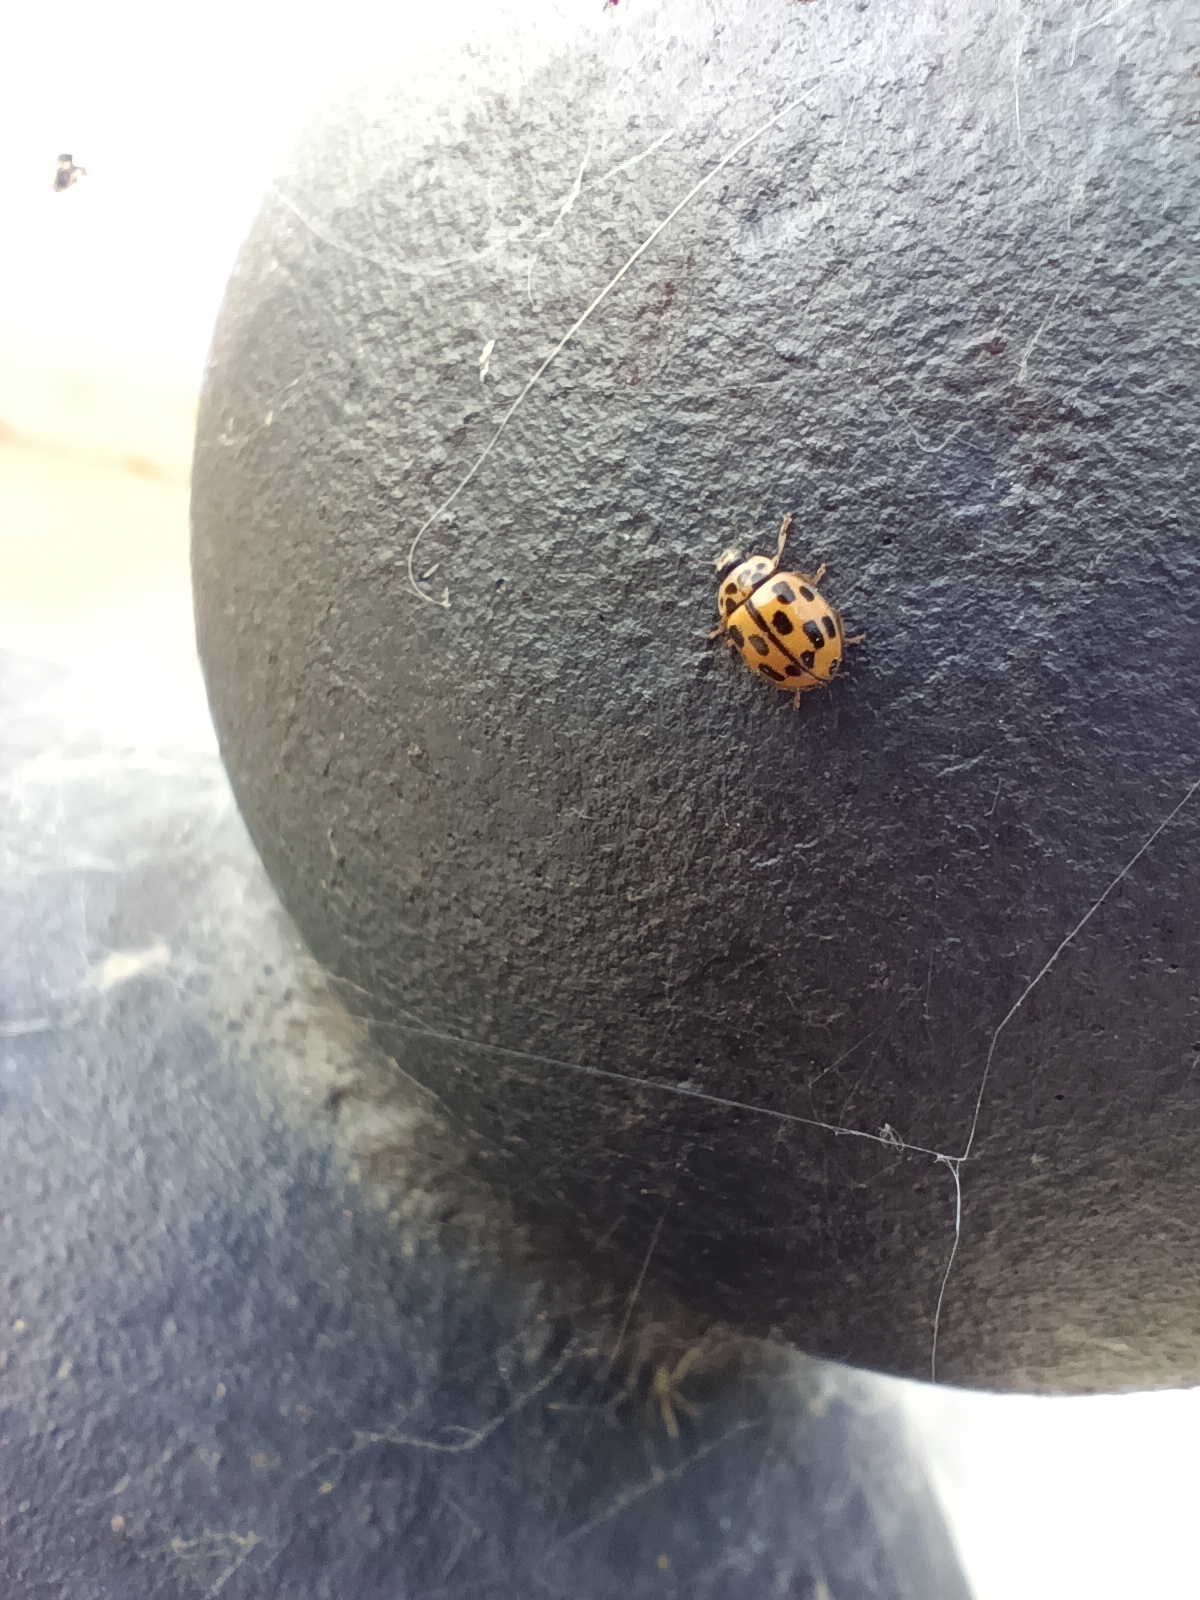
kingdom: Animalia
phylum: Arthropoda
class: Insecta
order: Coleoptera
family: Coccinellidae
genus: Propylaea
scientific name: Propylaea quatuordecimpunctata
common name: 14-spotted ladybird beetle
